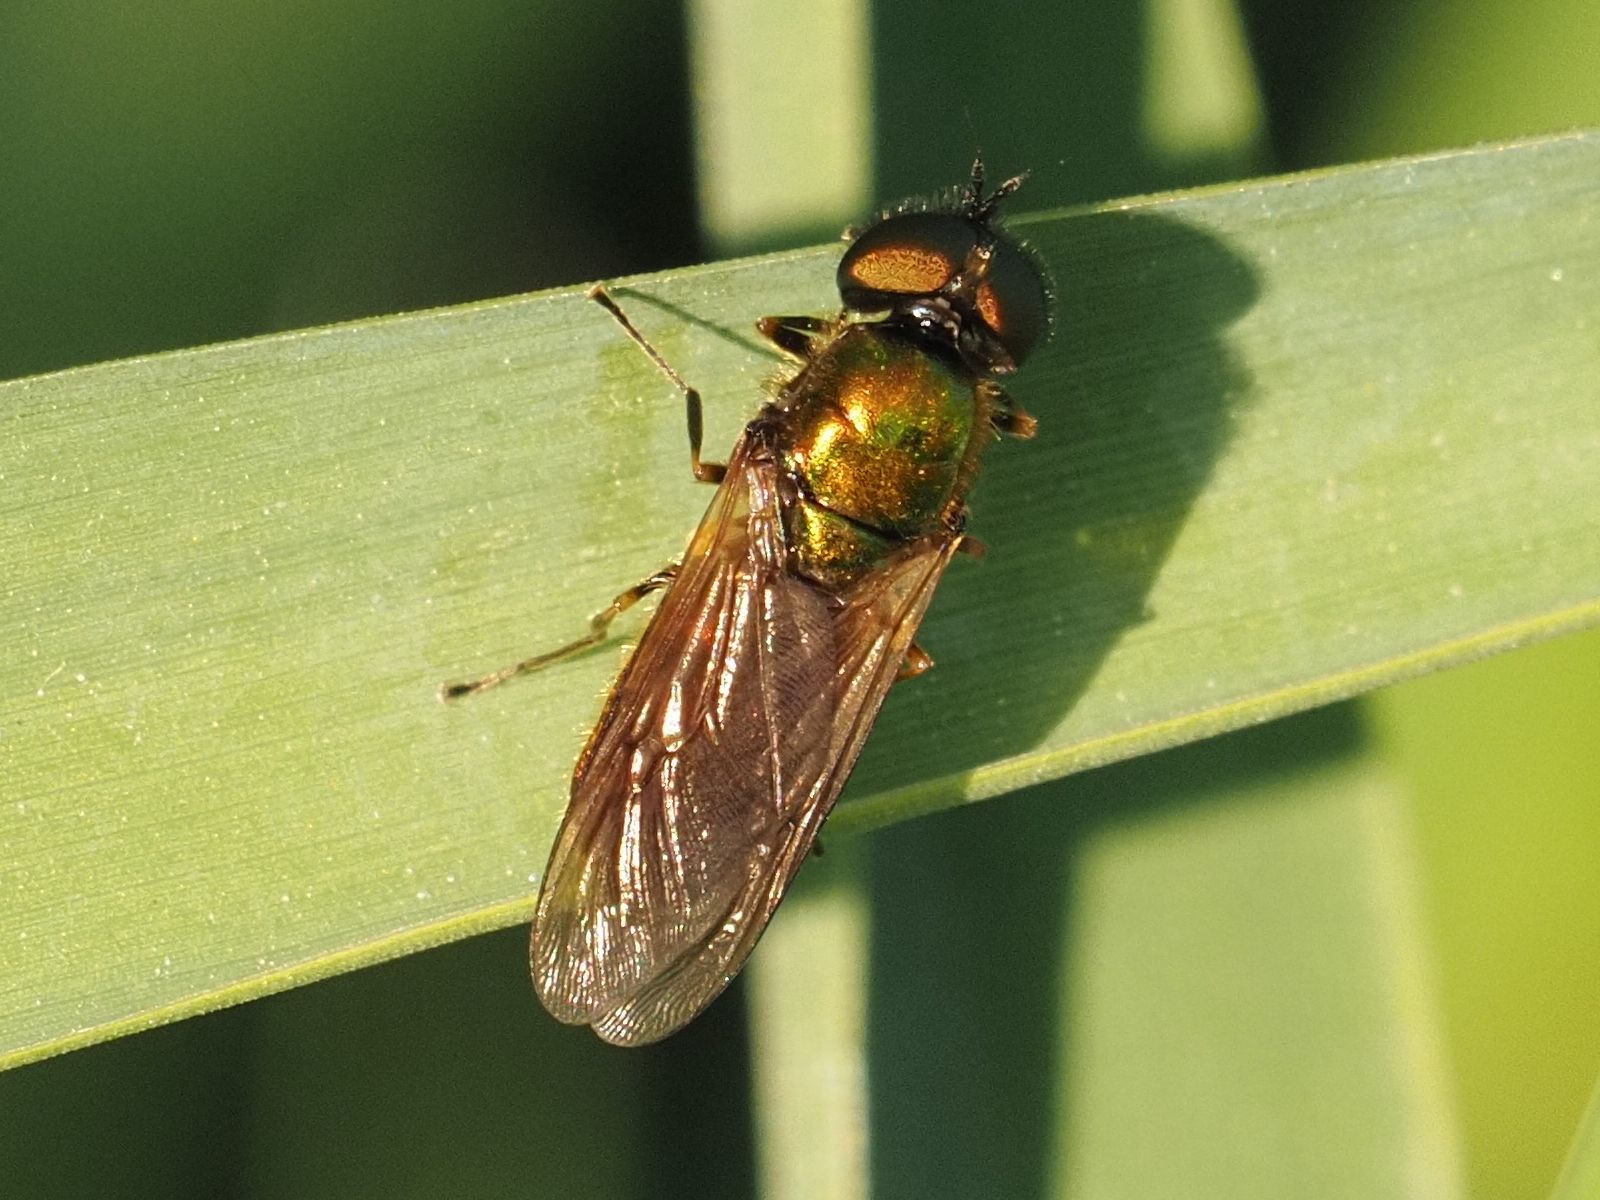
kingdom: Animalia
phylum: Arthropoda
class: Insecta
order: Diptera
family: Stratiomyidae
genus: Chloromyia
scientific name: Chloromyia formosa
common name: Soldier fly
